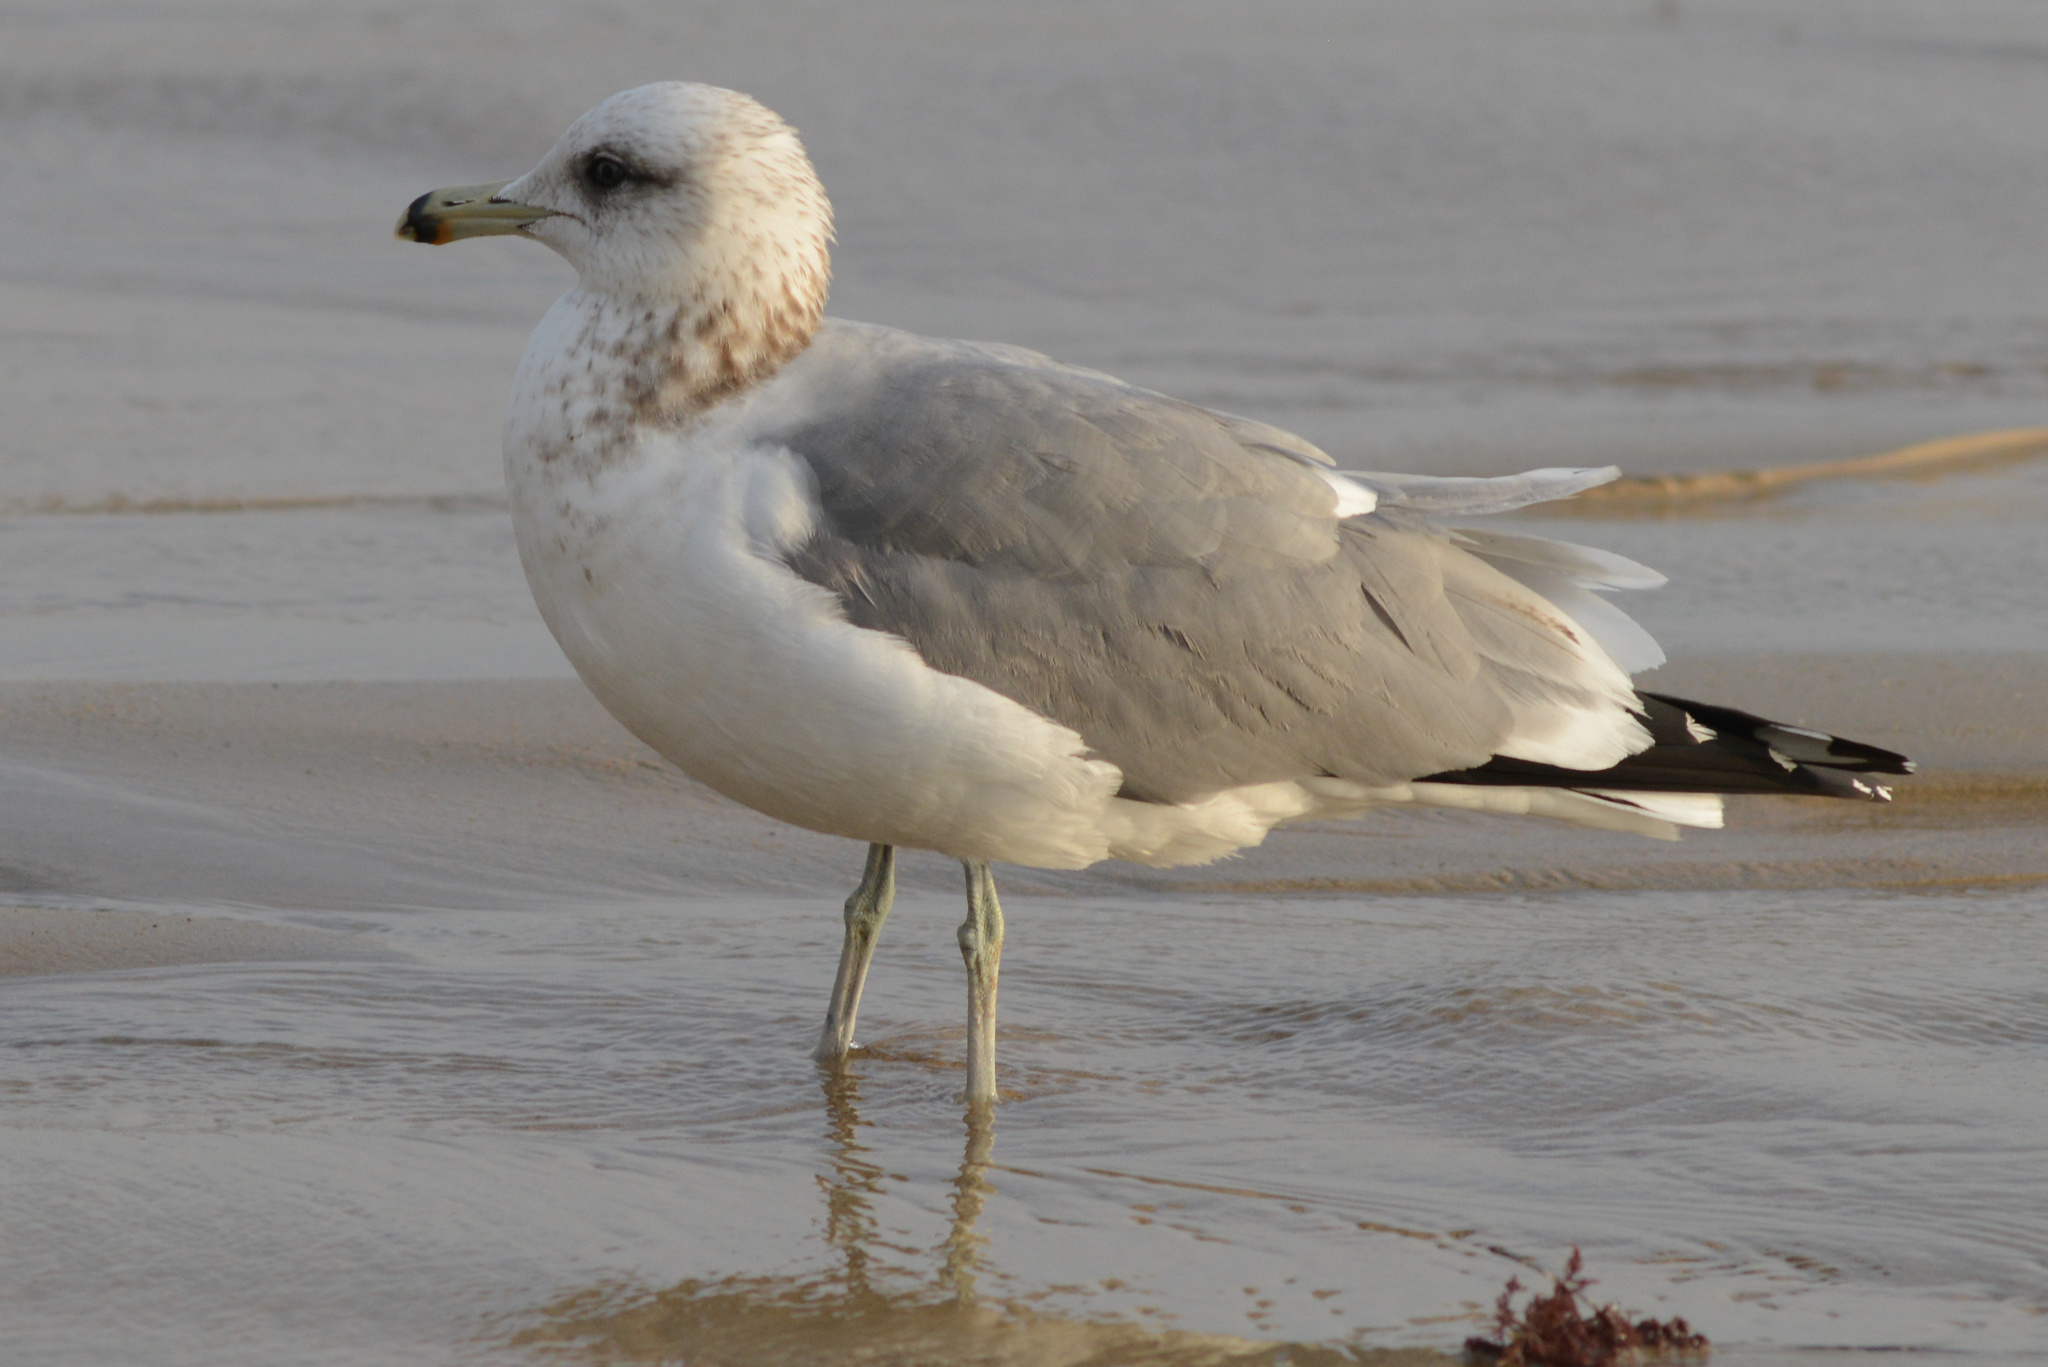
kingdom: Animalia
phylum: Chordata
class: Aves
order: Charadriiformes
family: Laridae
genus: Larus
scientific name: Larus californicus
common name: California gull
